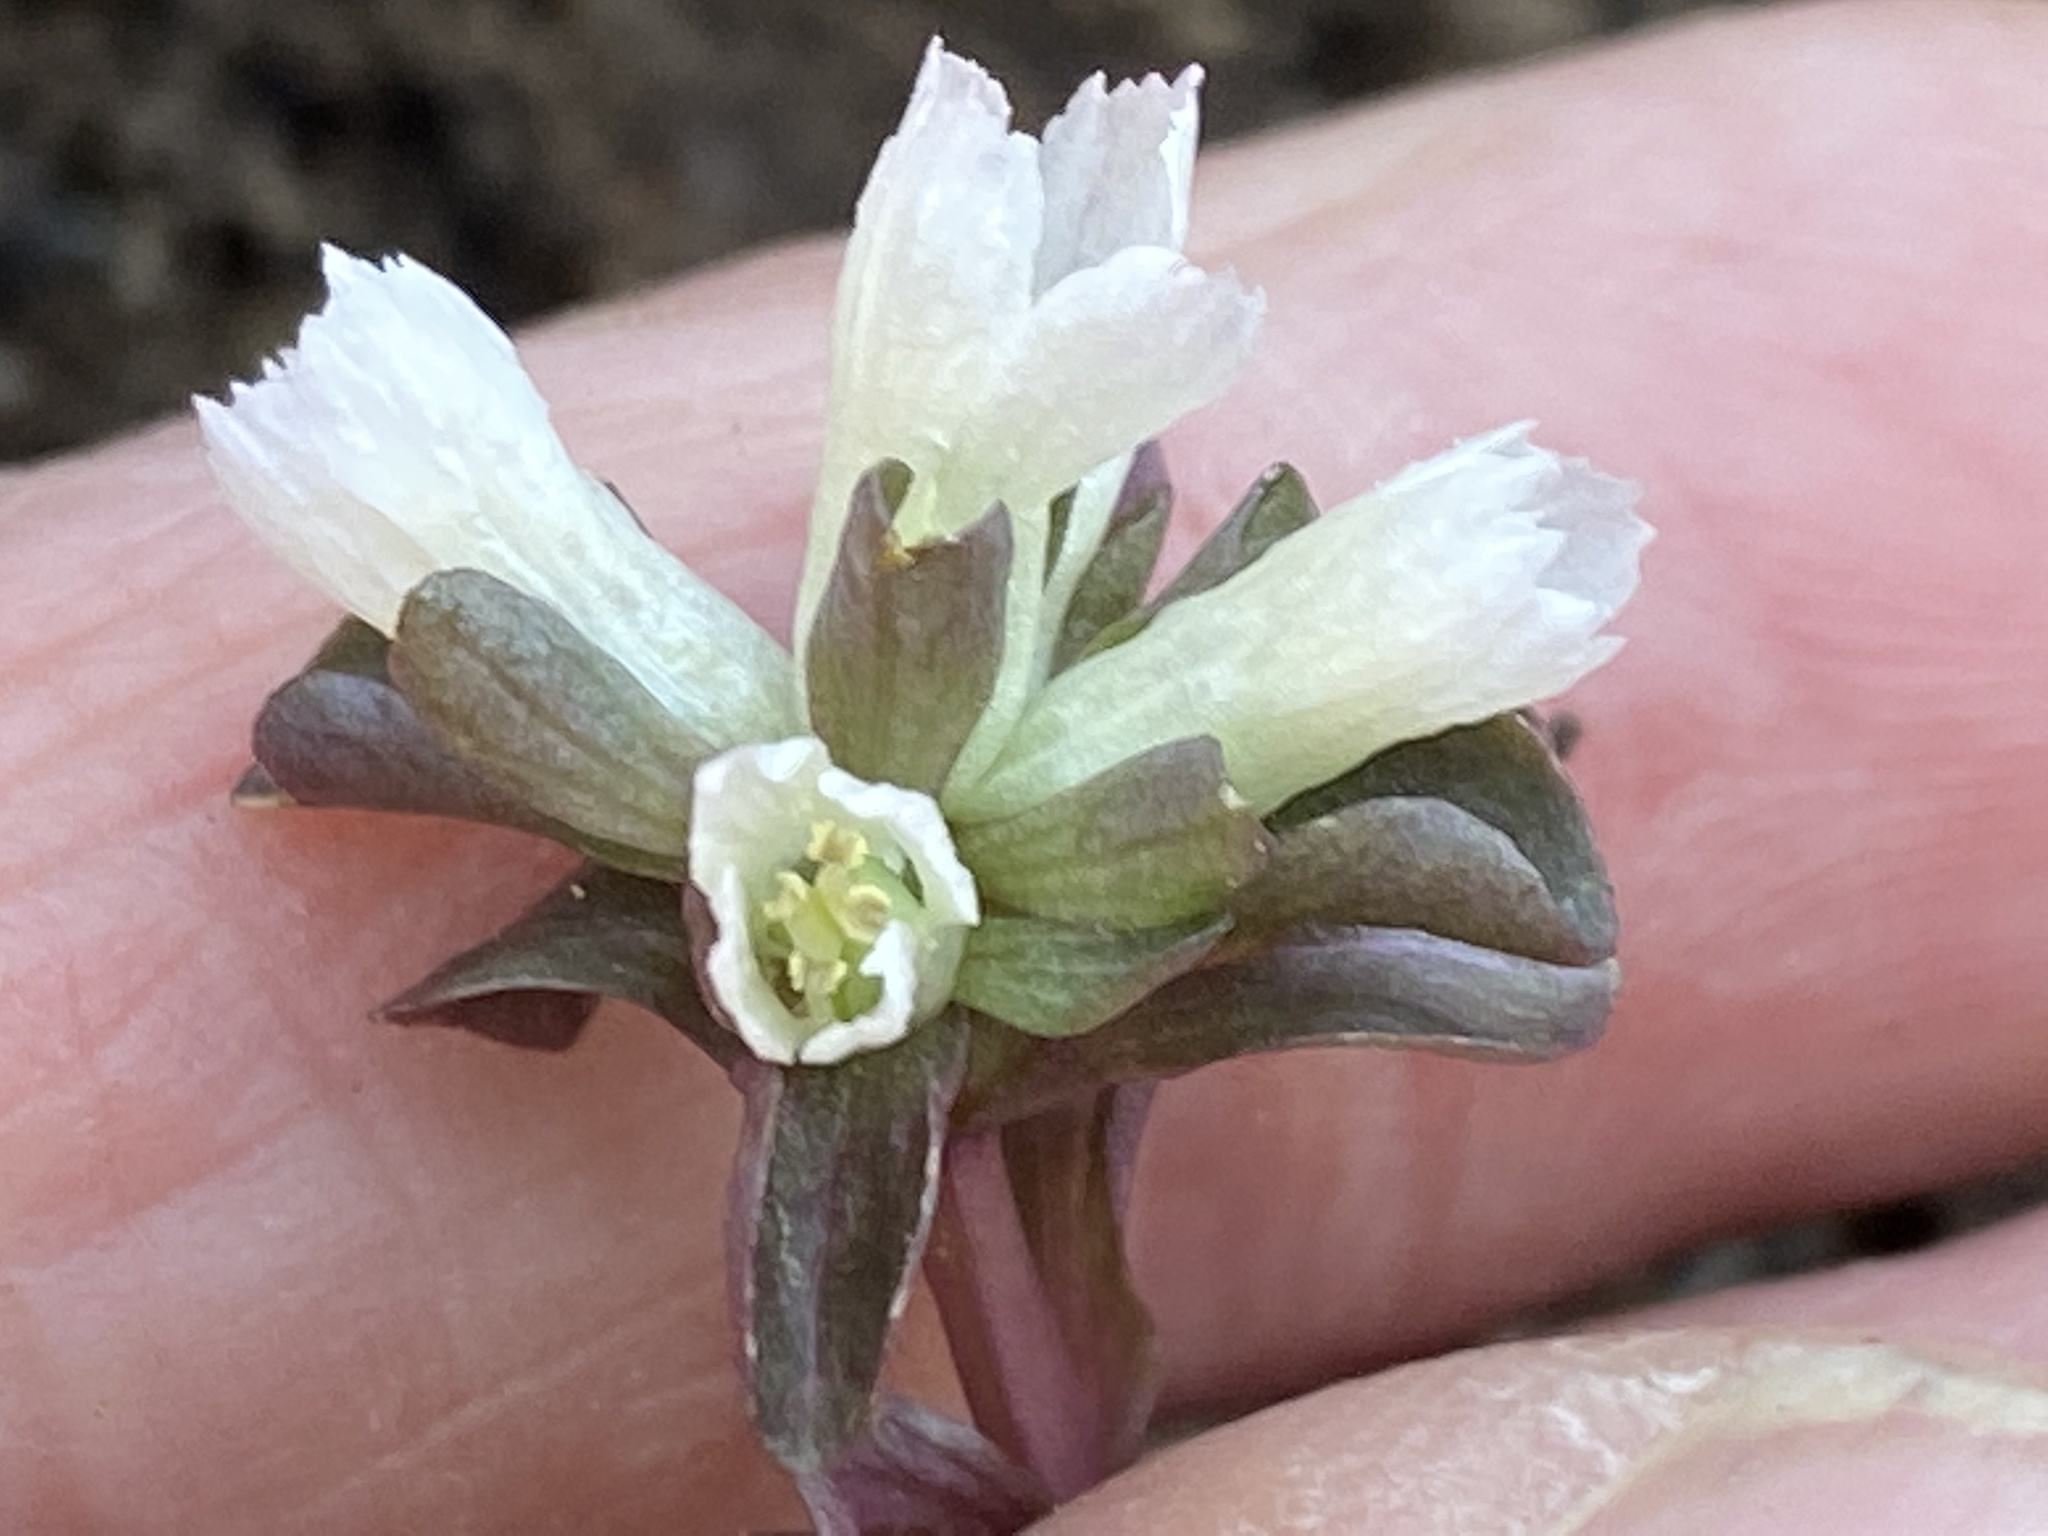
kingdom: Plantae
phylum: Tracheophyta
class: Magnoliopsida
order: Gentianales
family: Gentianaceae
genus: Obolaria
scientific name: Obolaria virginica
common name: Pennywort
